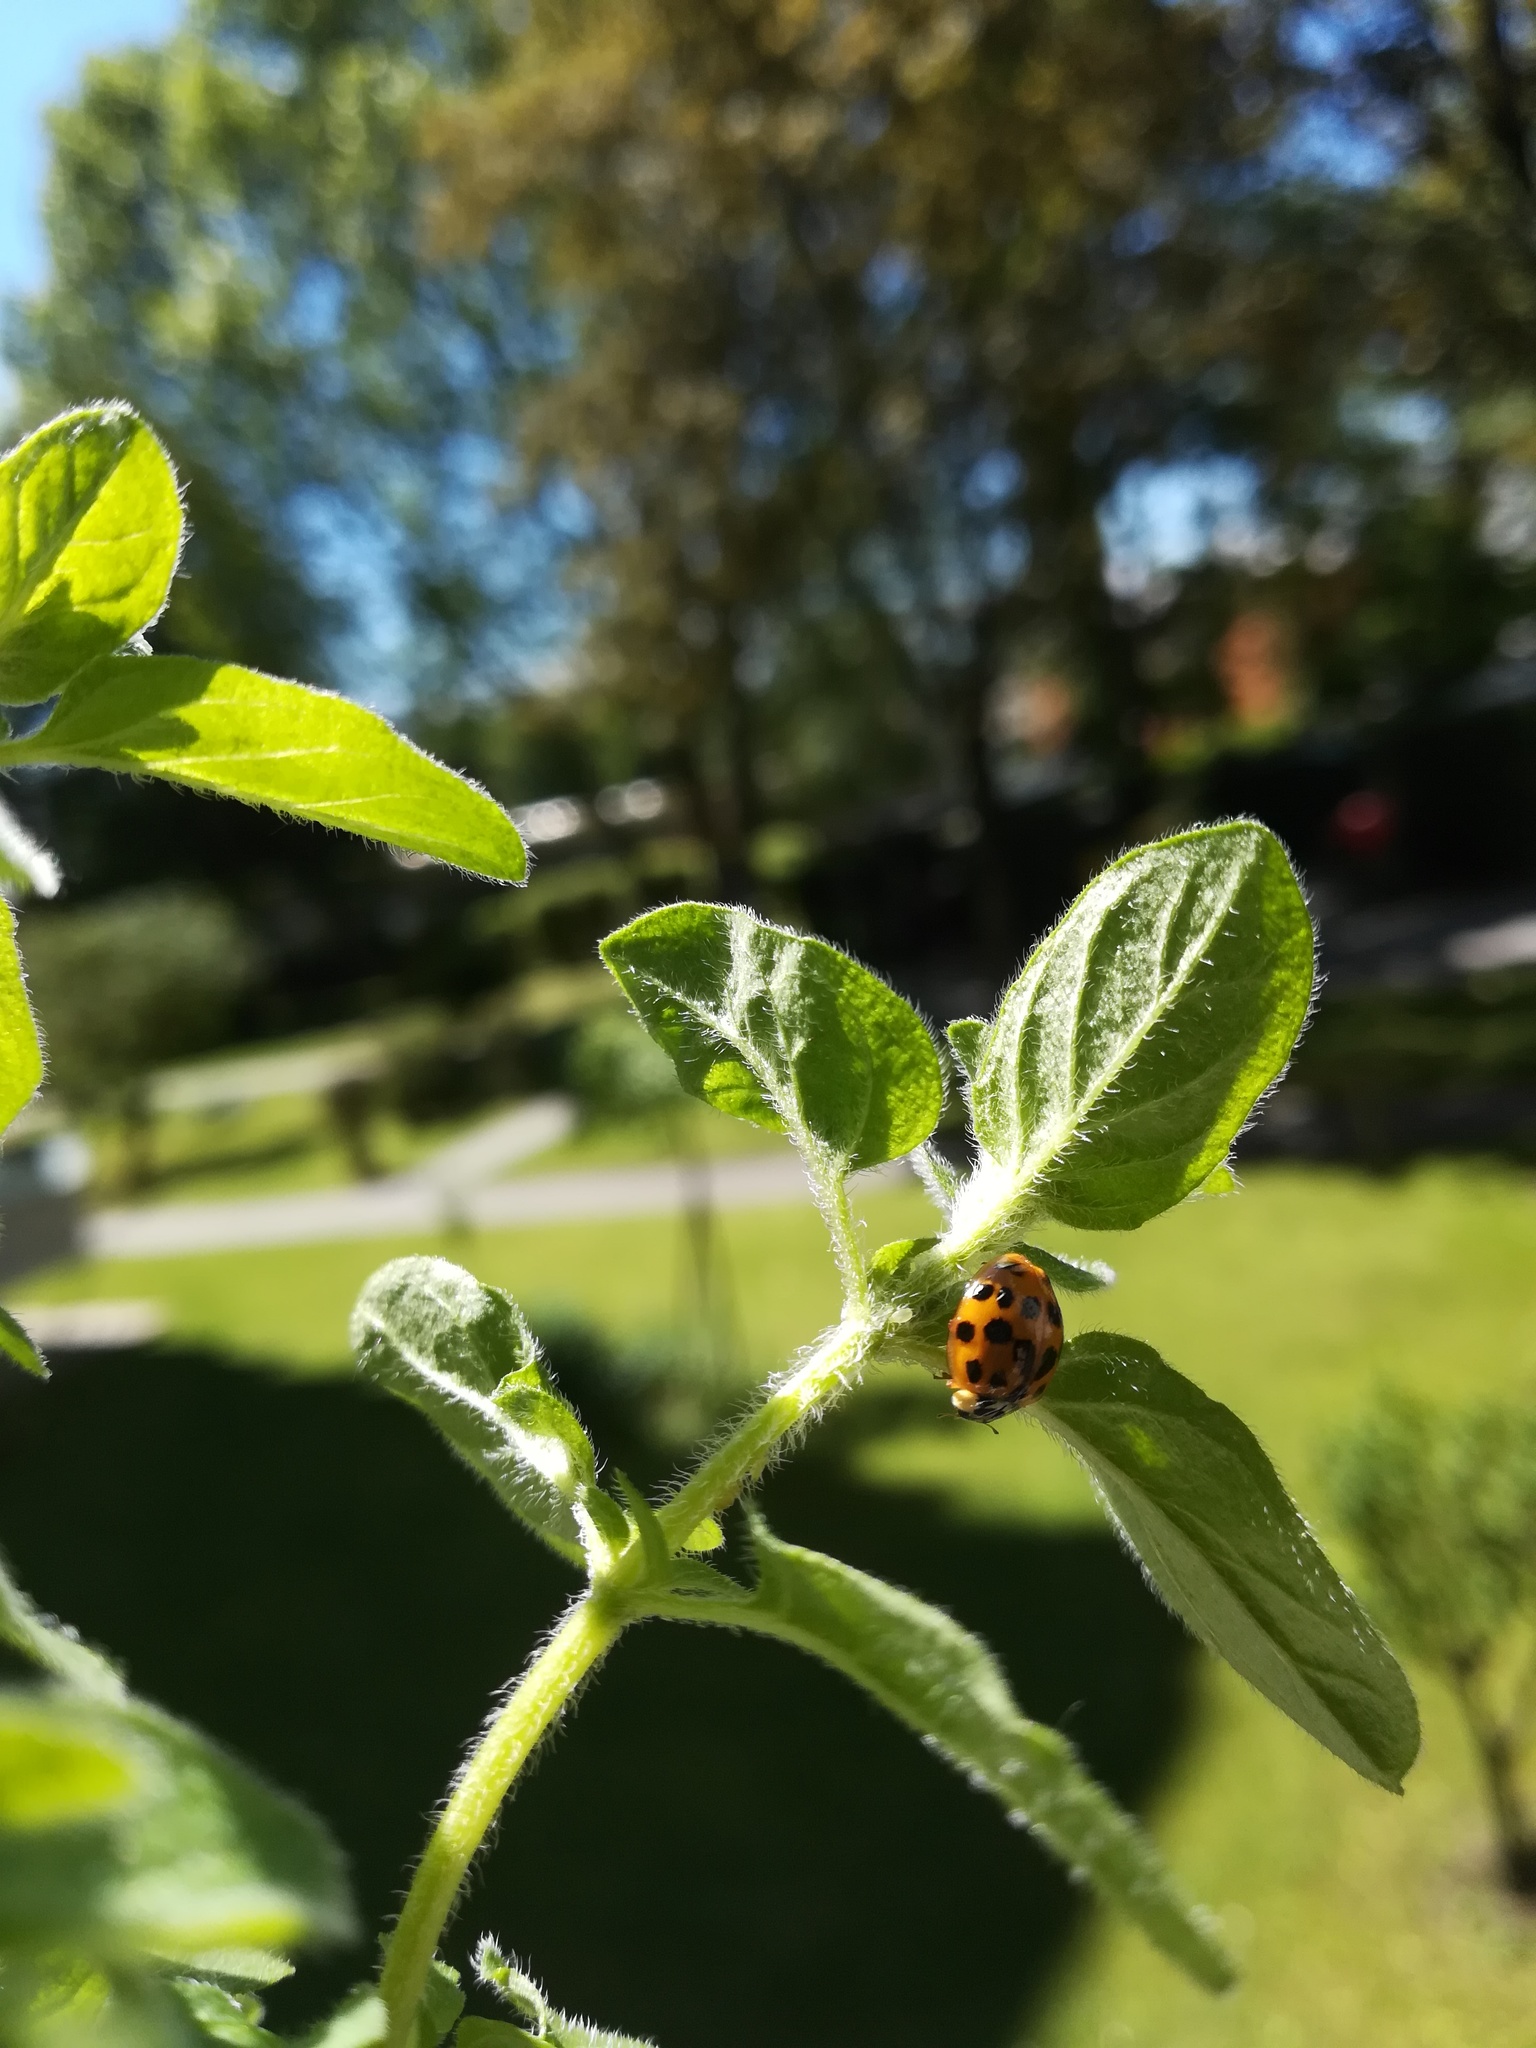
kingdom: Animalia
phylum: Arthropoda
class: Insecta
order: Coleoptera
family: Coccinellidae
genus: Harmonia
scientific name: Harmonia axyridis
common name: Harlequin ladybird
